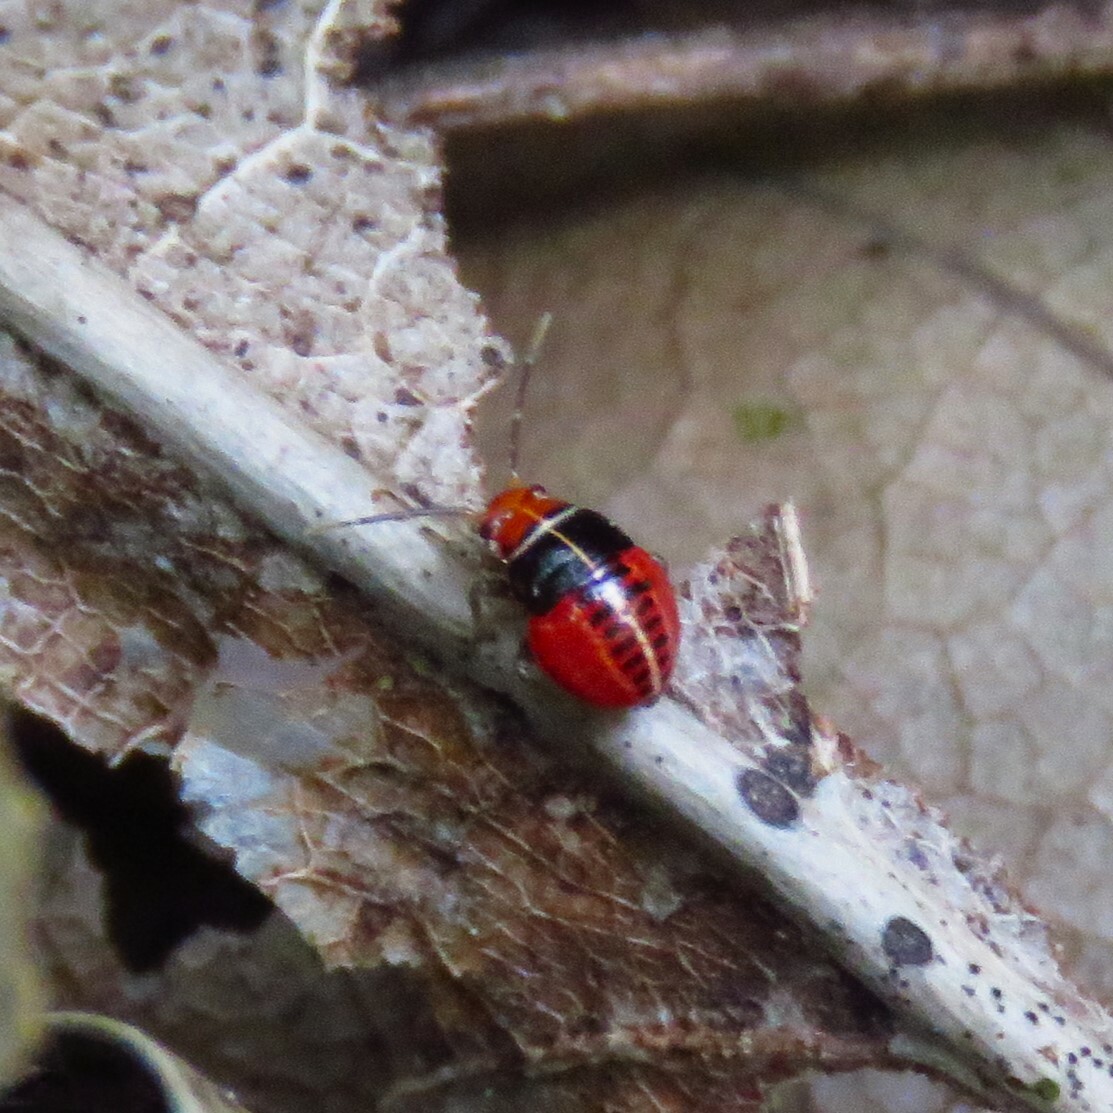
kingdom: Animalia
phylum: Arthropoda
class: Insecta
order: Hemiptera
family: Miridae
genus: Poecilocapsus
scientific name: Poecilocapsus lineatus
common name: Four-lined plant bug
